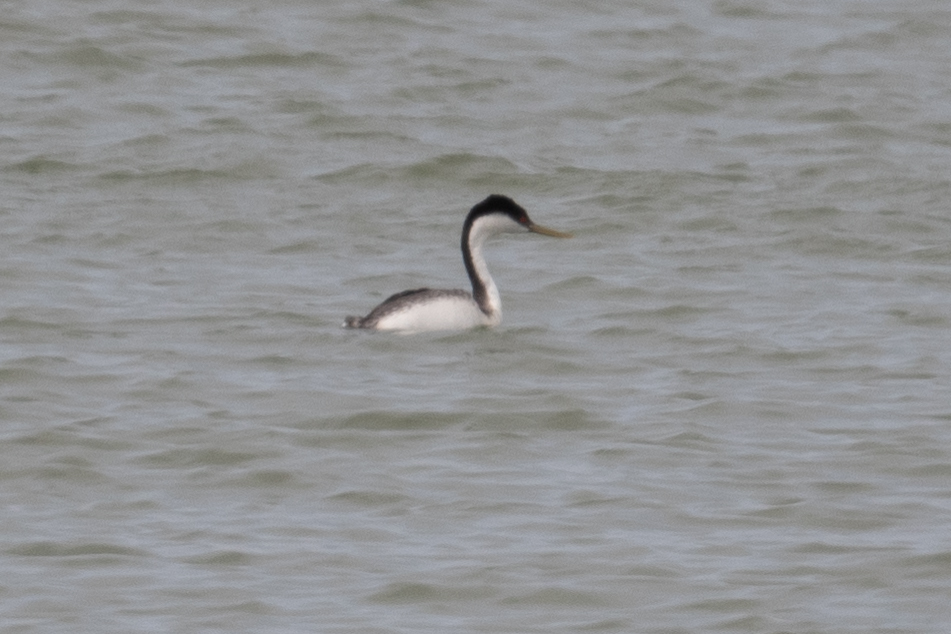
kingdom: Animalia
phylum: Chordata
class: Aves
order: Podicipediformes
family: Podicipedidae
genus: Aechmophorus
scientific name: Aechmophorus occidentalis
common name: Western grebe
